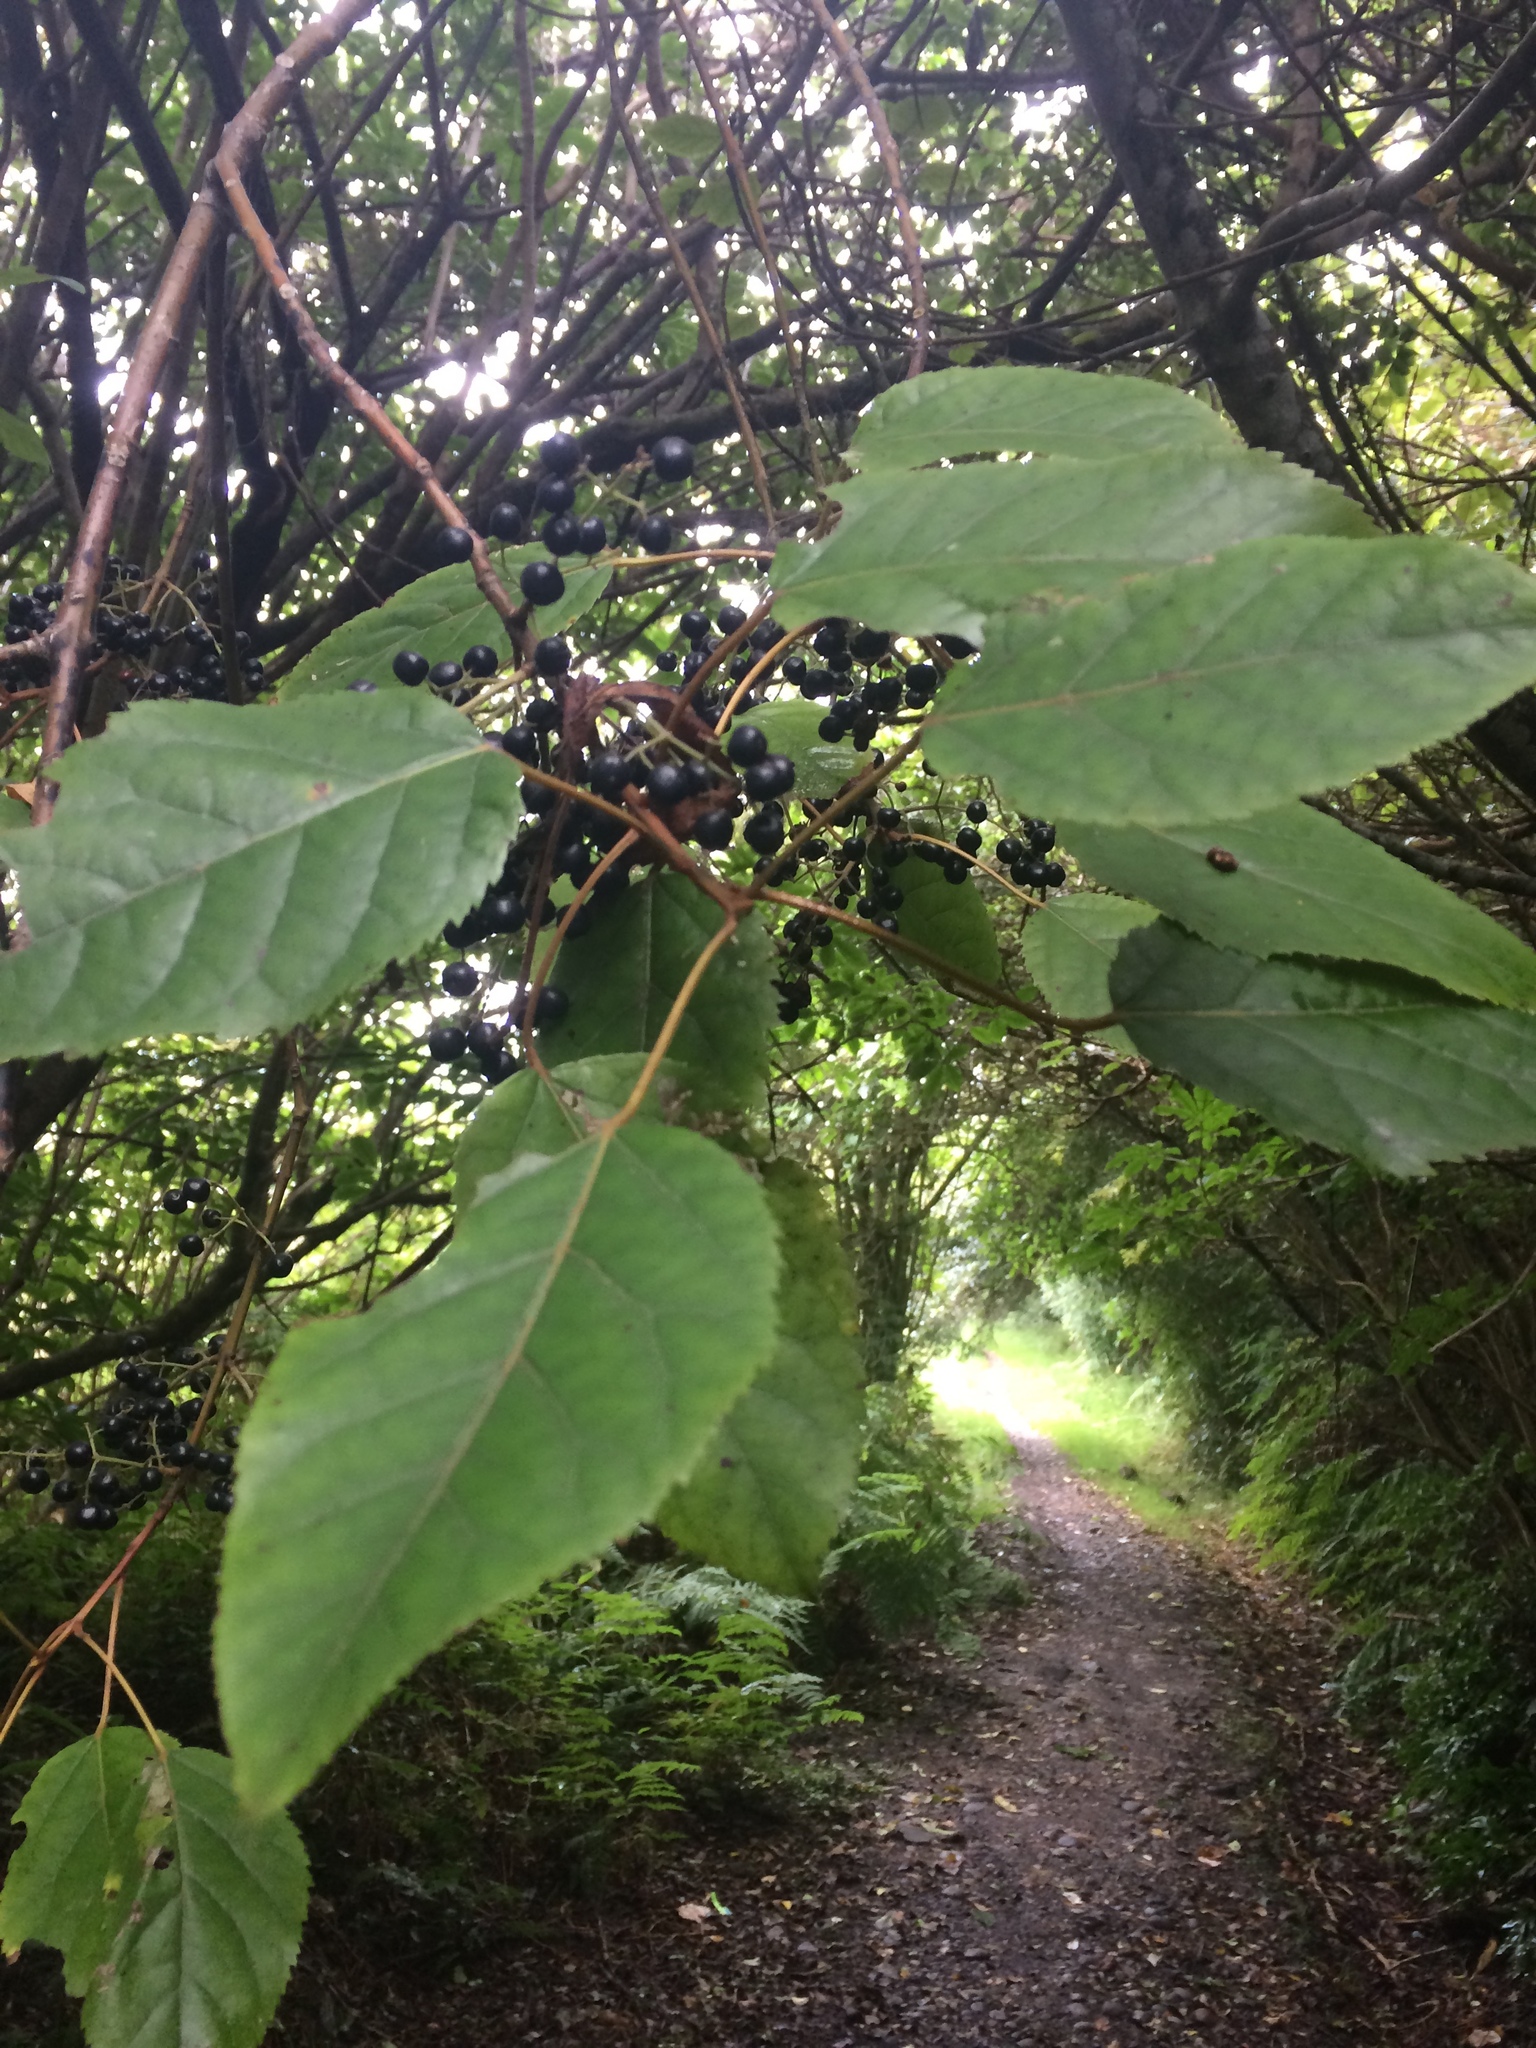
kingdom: Plantae
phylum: Tracheophyta
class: Magnoliopsida
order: Oxalidales
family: Elaeocarpaceae
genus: Aristotelia
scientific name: Aristotelia serrata
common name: New zealand wineberry
